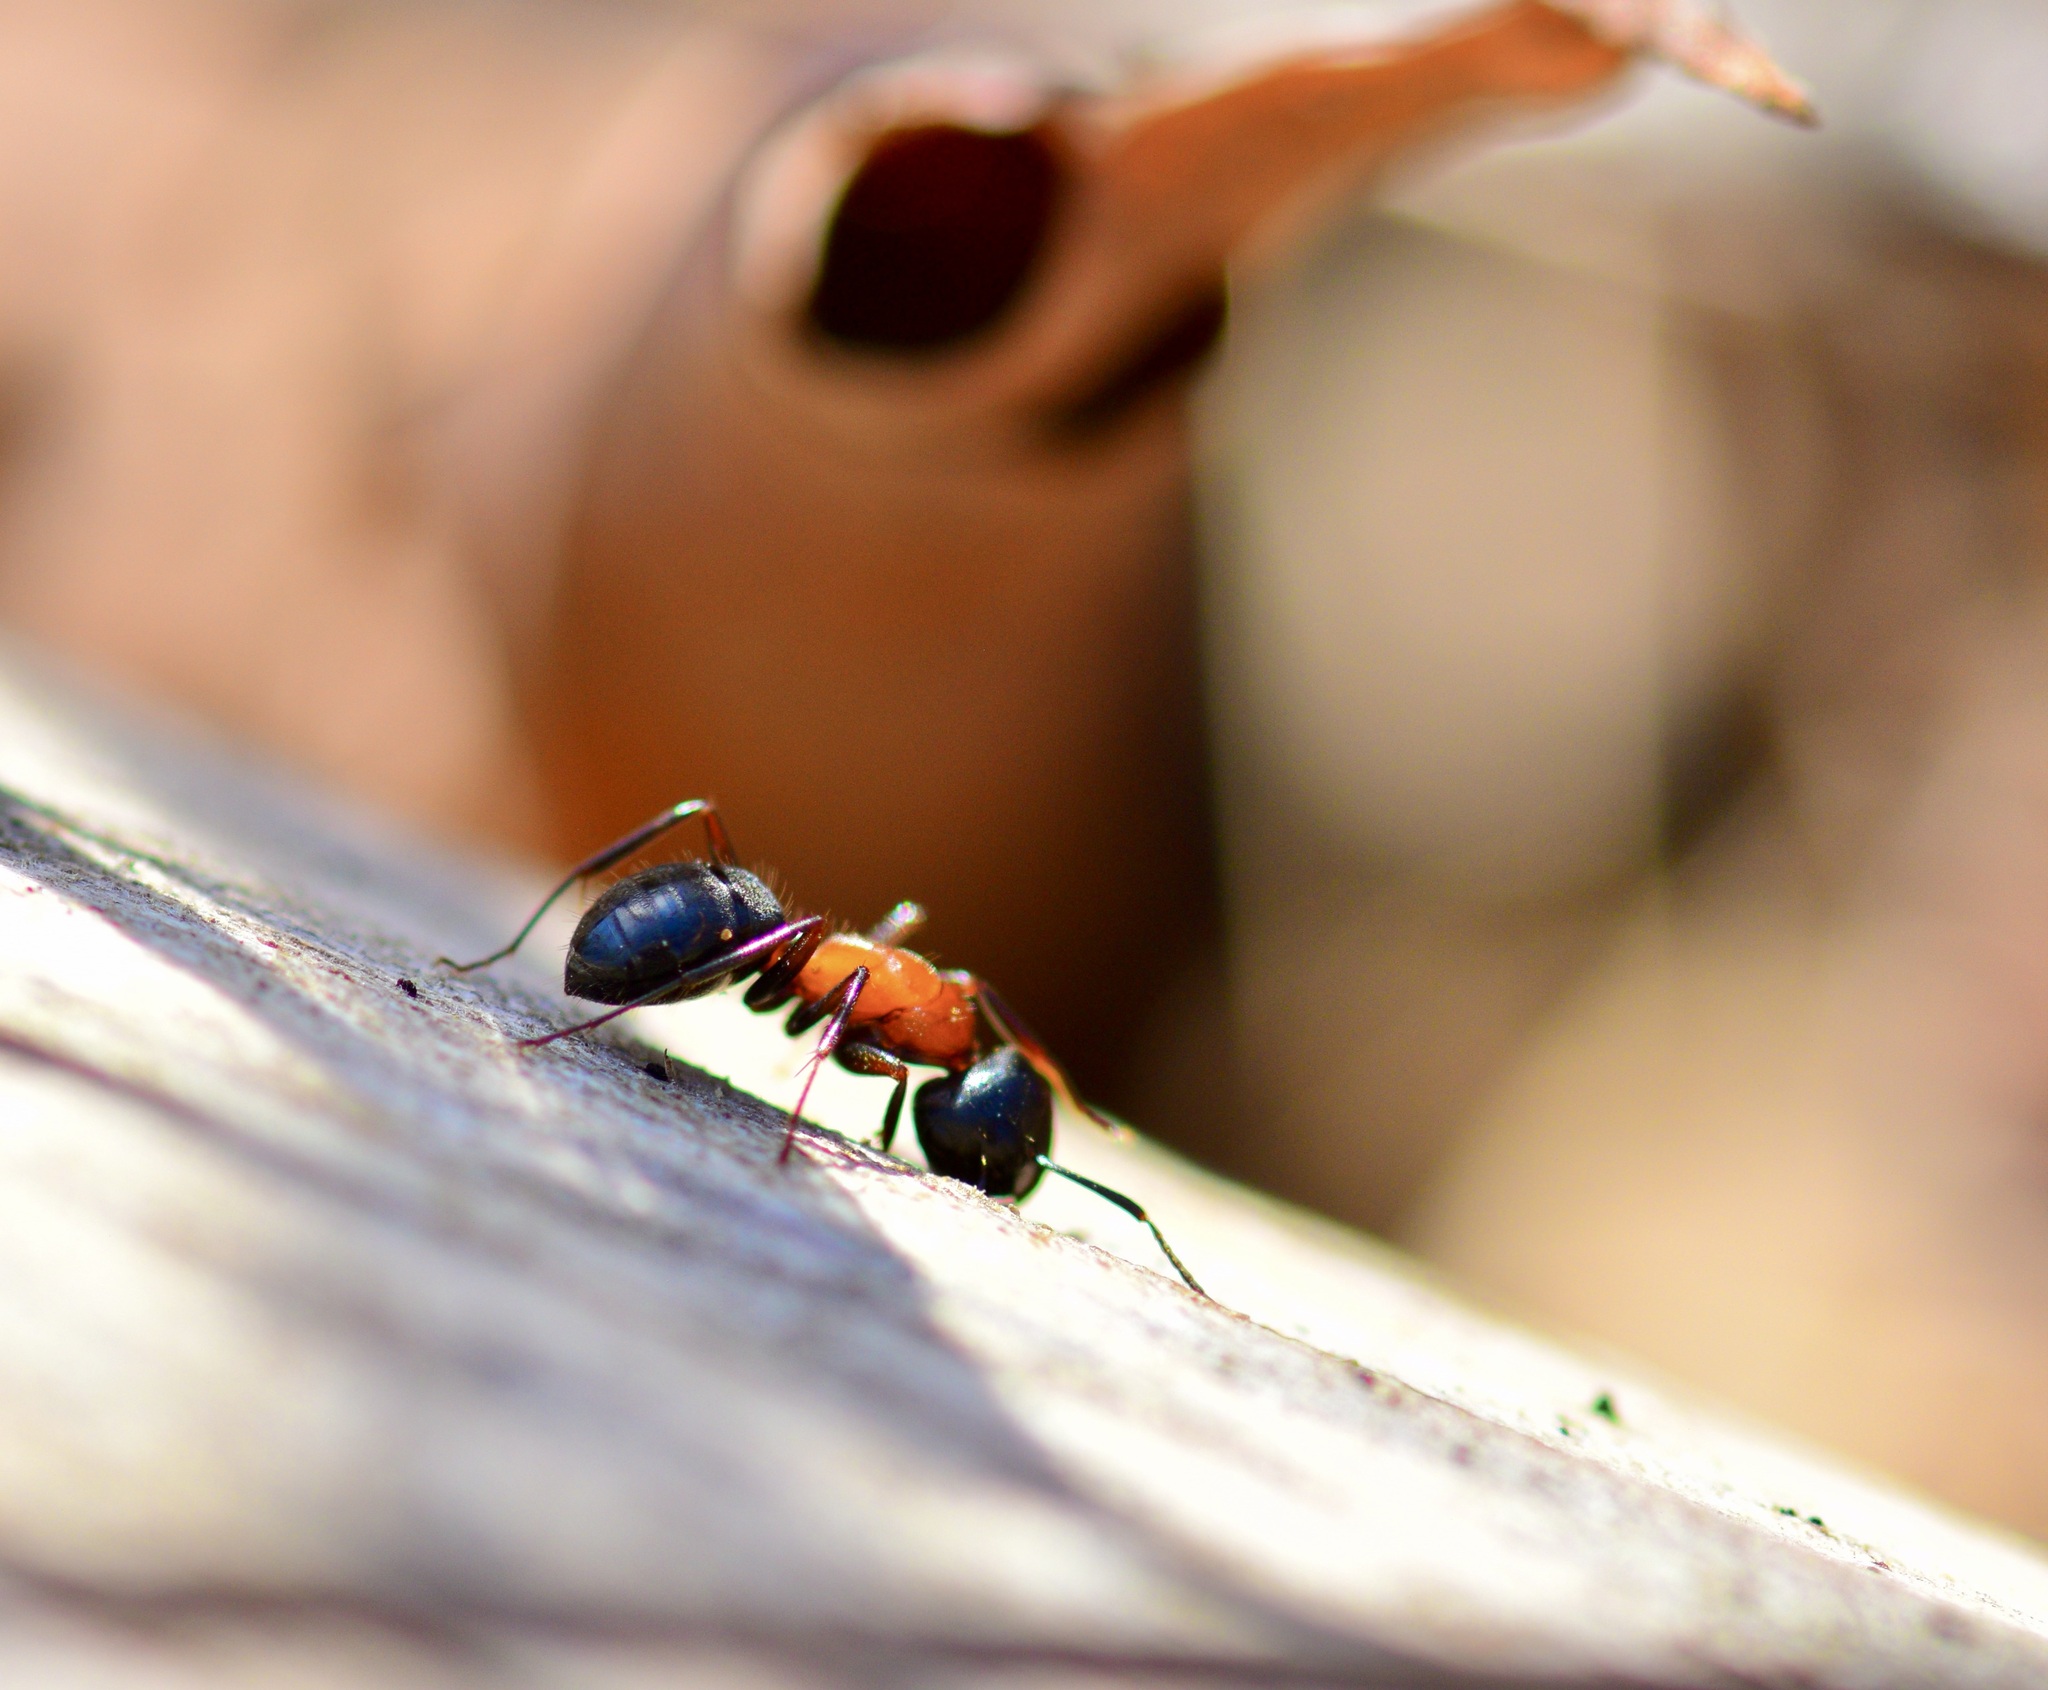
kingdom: Animalia
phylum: Arthropoda
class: Insecta
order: Hymenoptera
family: Formicidae
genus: Camponotus
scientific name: Camponotus novaeboracensis
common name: New york carpenter ant
